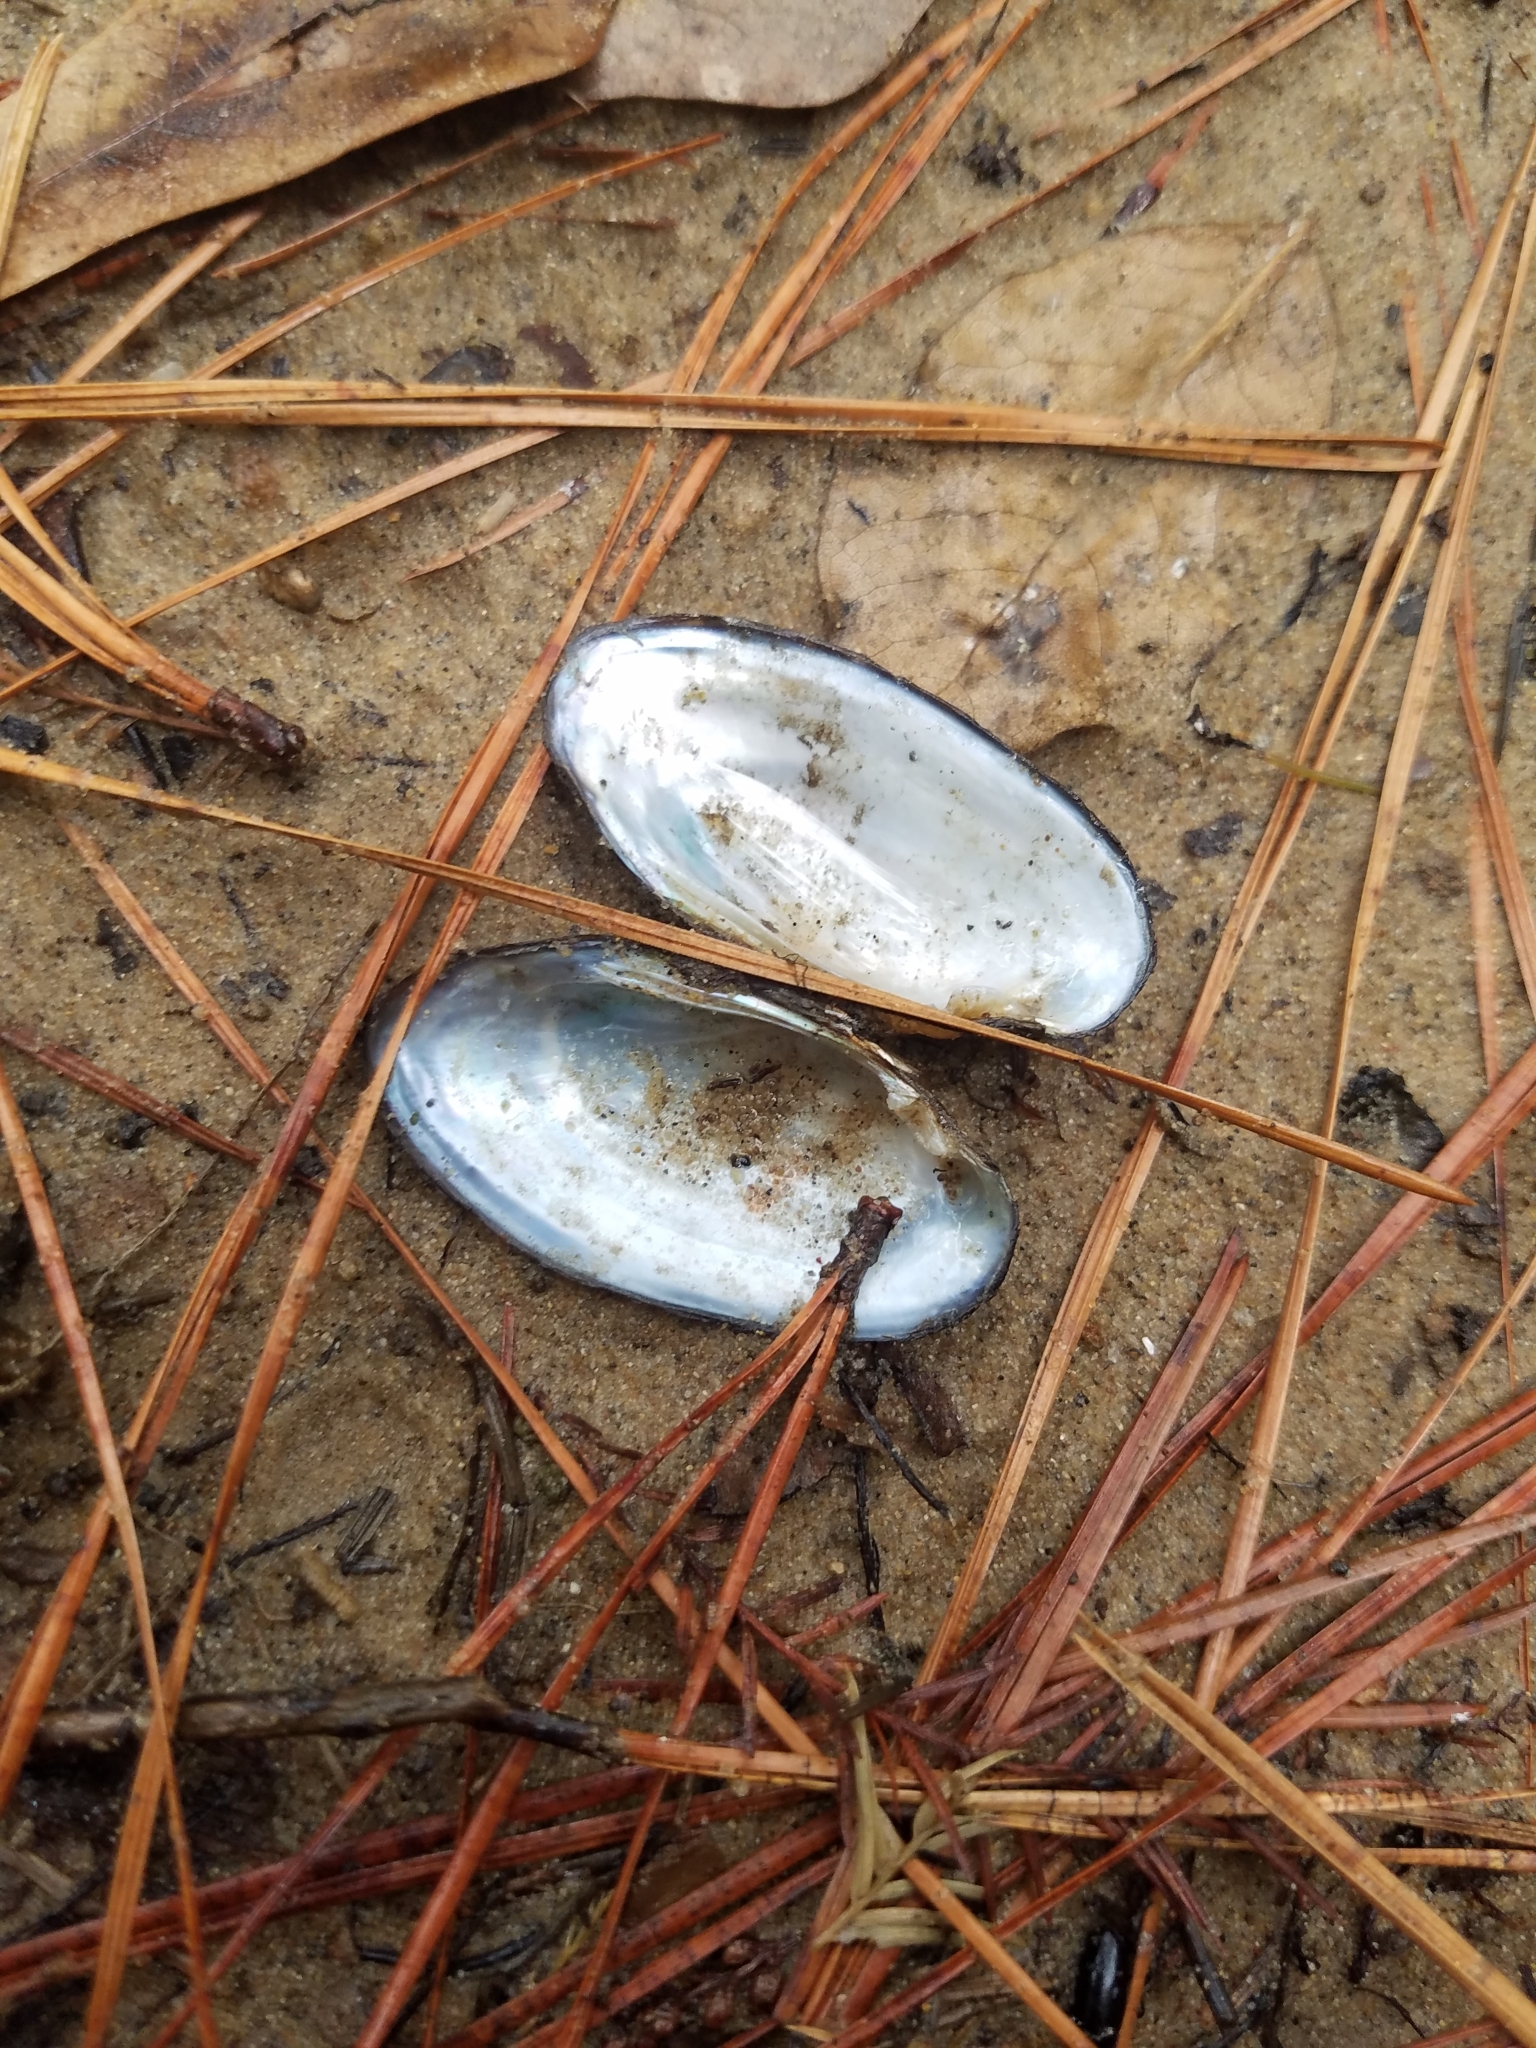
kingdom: Animalia
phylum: Mollusca
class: Bivalvia
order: Unionida
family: Unionidae
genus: Toxolasma
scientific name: Toxolasma texasiense
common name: Texas lilliput
